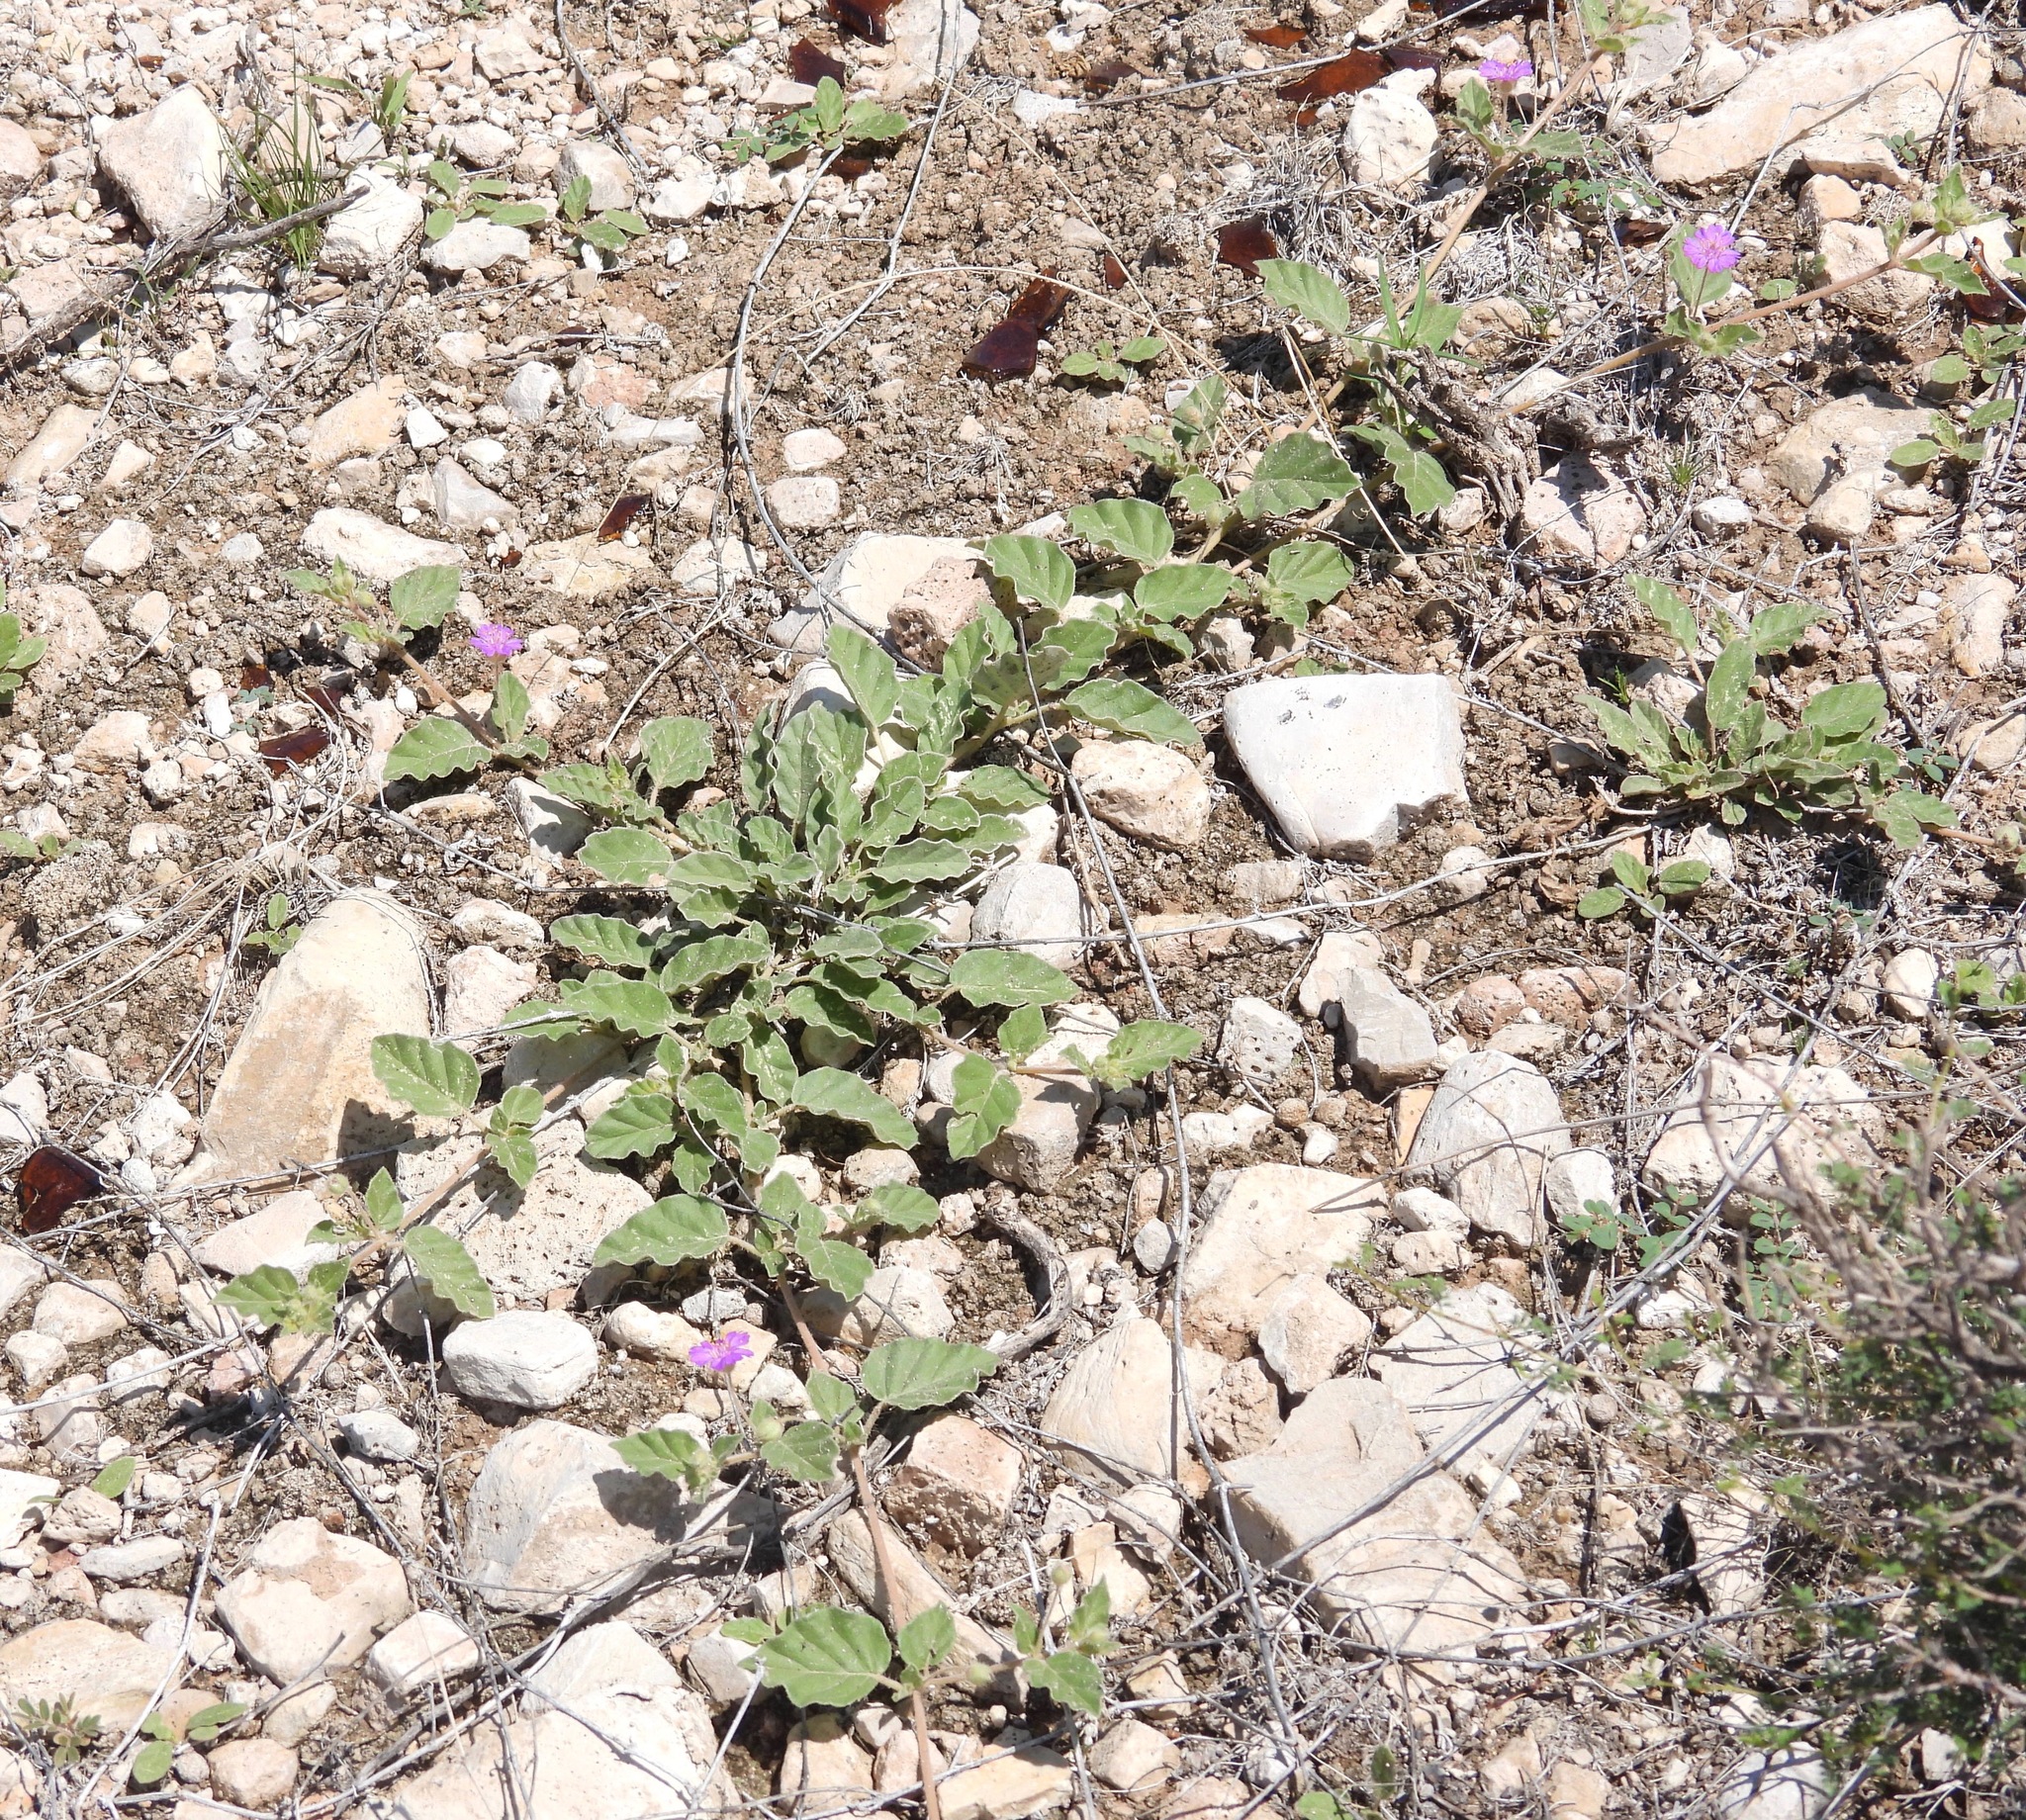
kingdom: Plantae
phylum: Tracheophyta
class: Magnoliopsida
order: Caryophyllales
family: Nyctaginaceae
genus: Allionia
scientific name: Allionia incarnata
